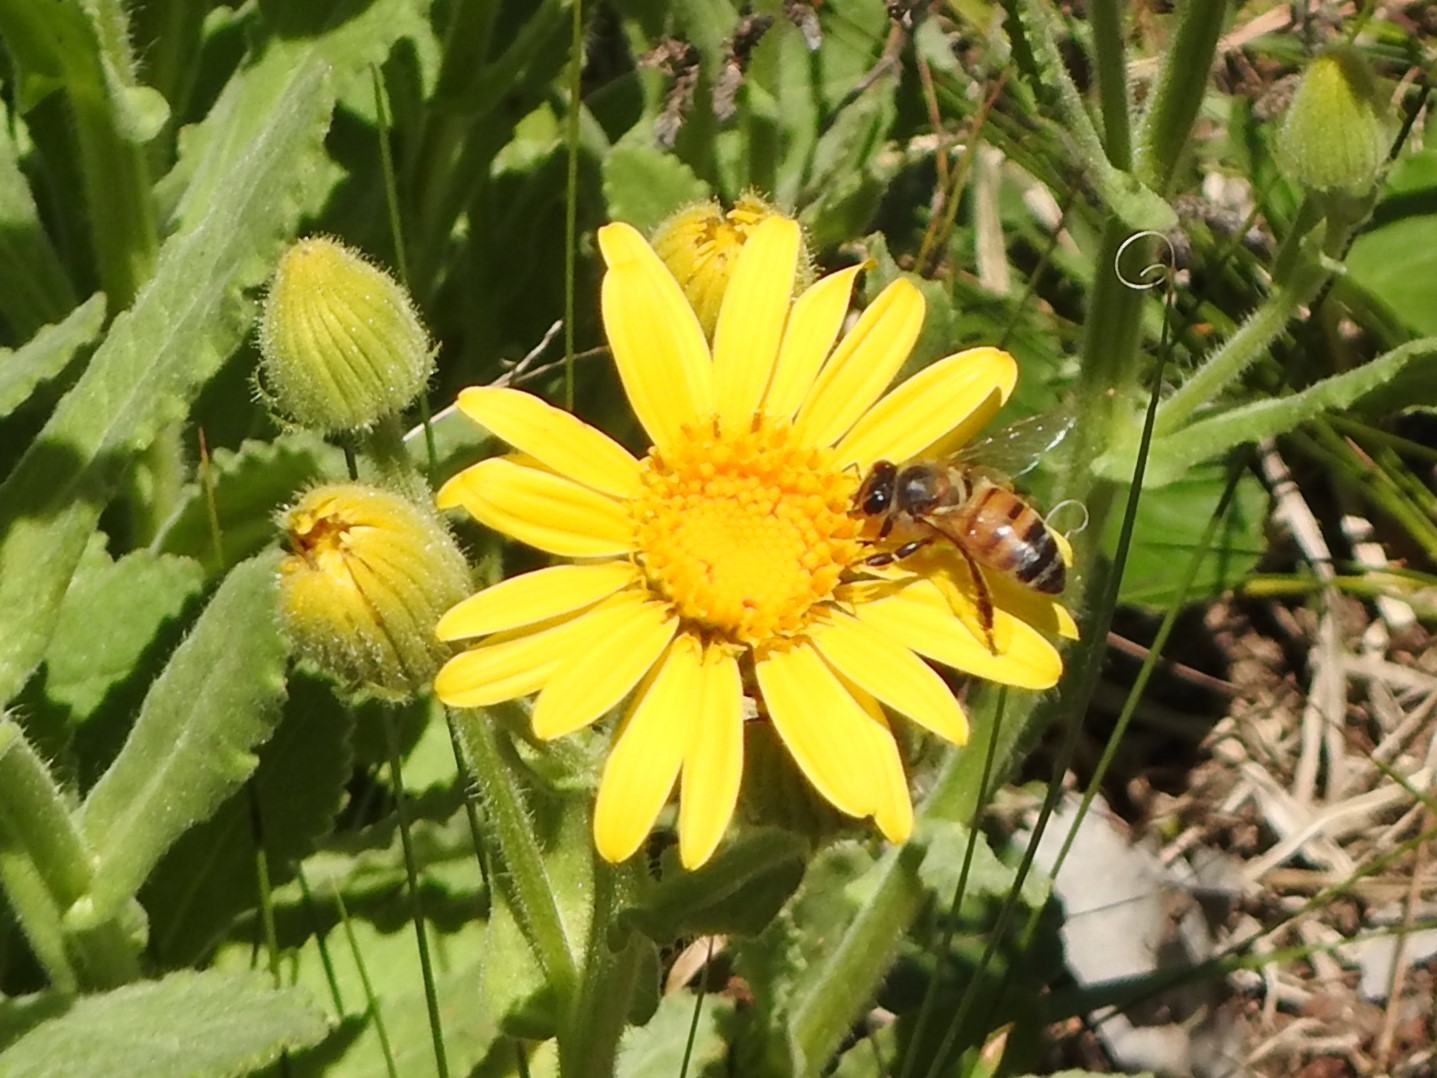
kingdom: Animalia
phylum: Arthropoda
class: Insecta
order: Hymenoptera
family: Apidae
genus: Apis
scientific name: Apis mellifera
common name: Honey bee
